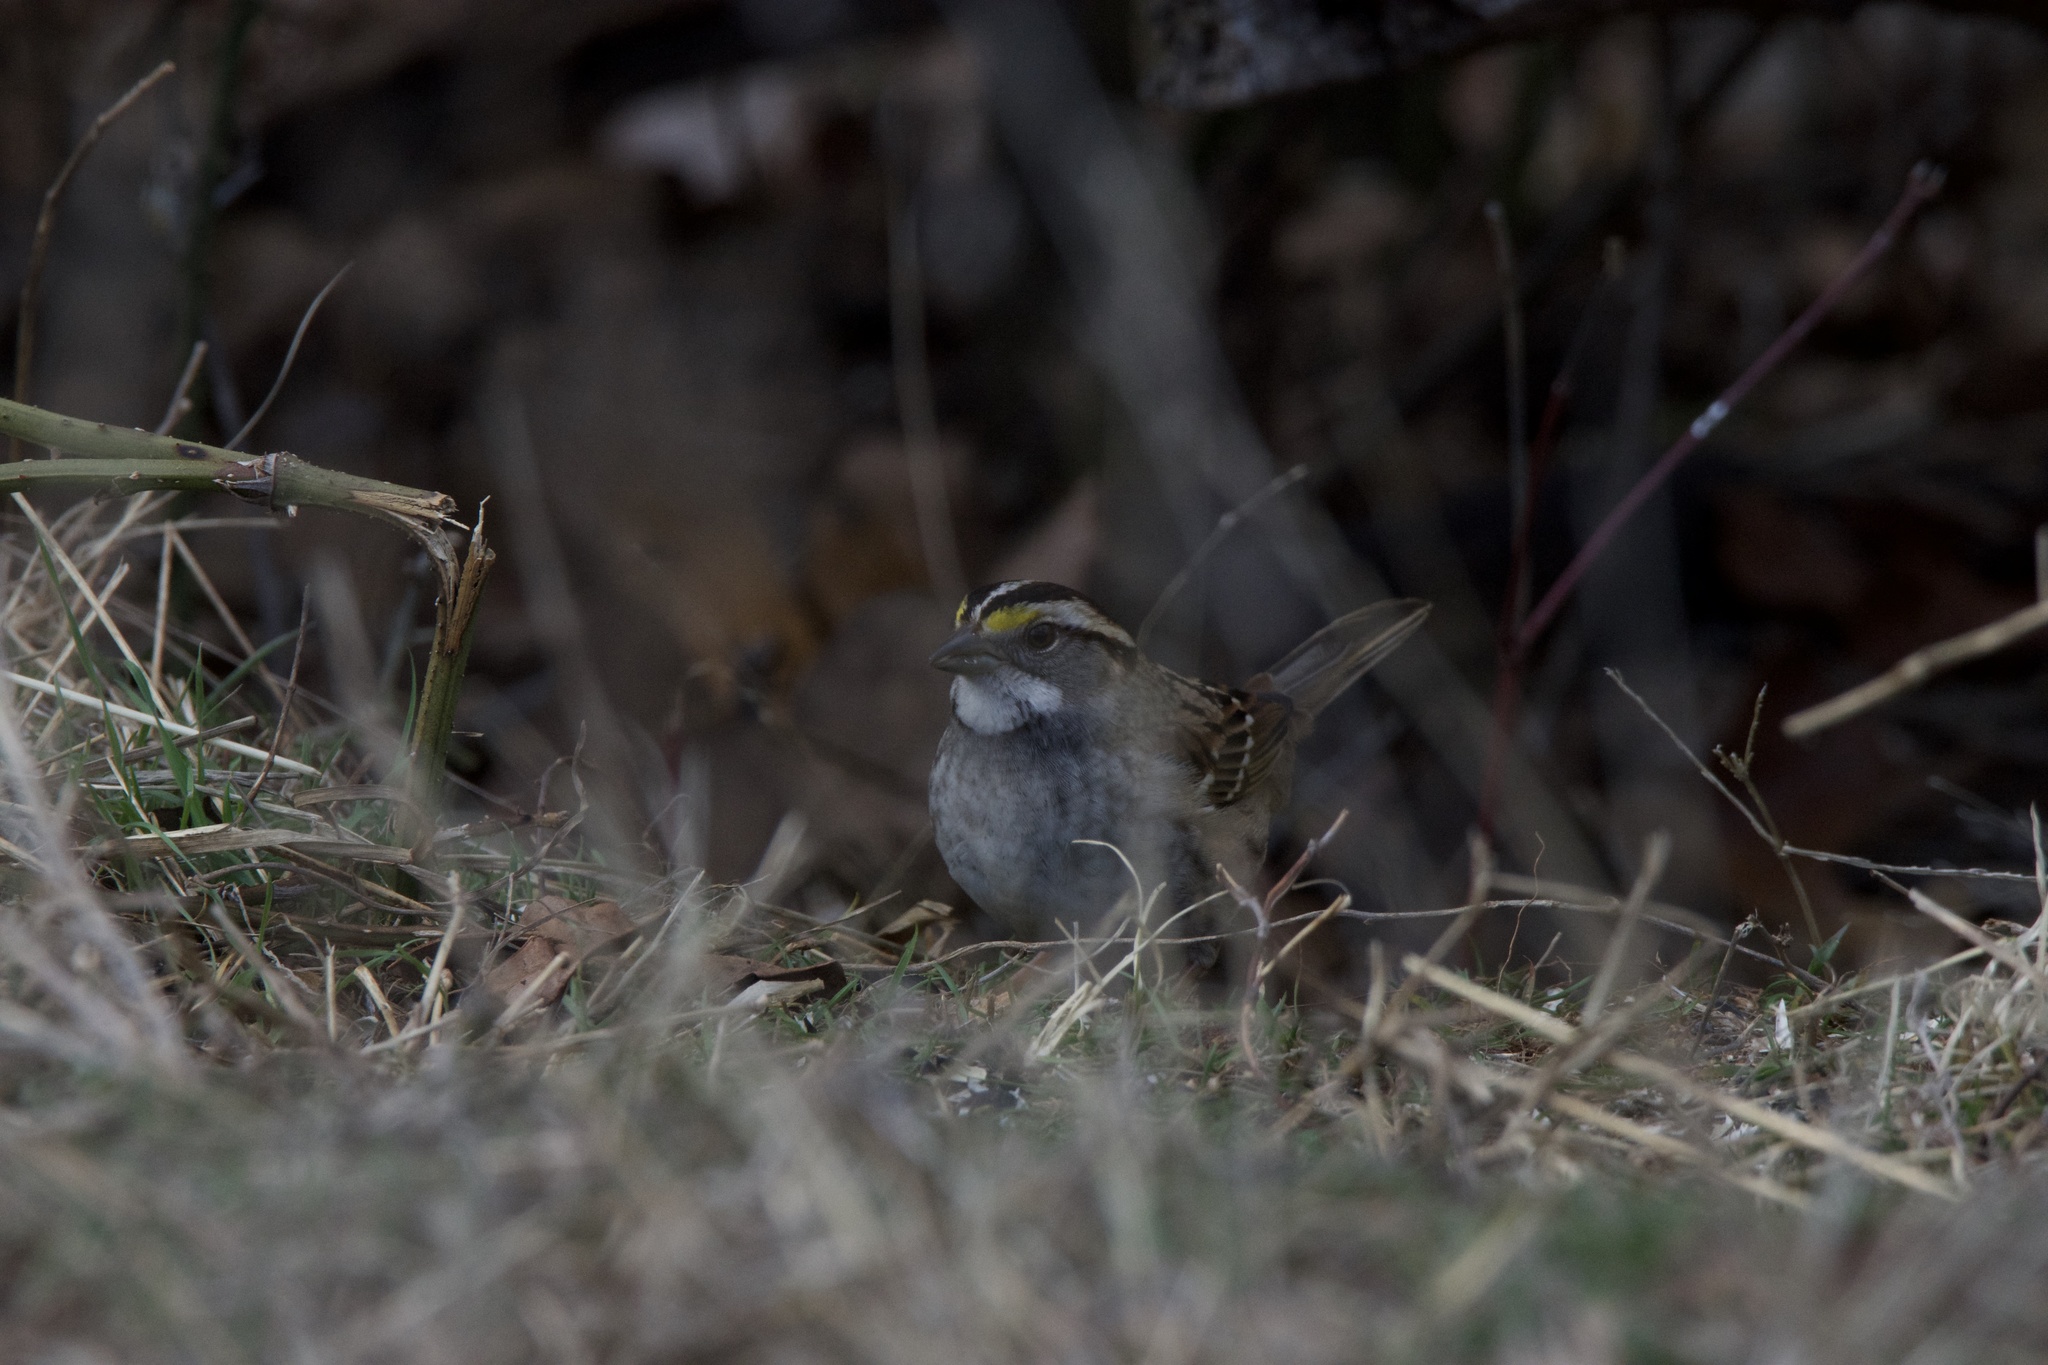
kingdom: Animalia
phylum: Chordata
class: Aves
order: Passeriformes
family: Passerellidae
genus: Zonotrichia
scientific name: Zonotrichia albicollis
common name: White-throated sparrow
